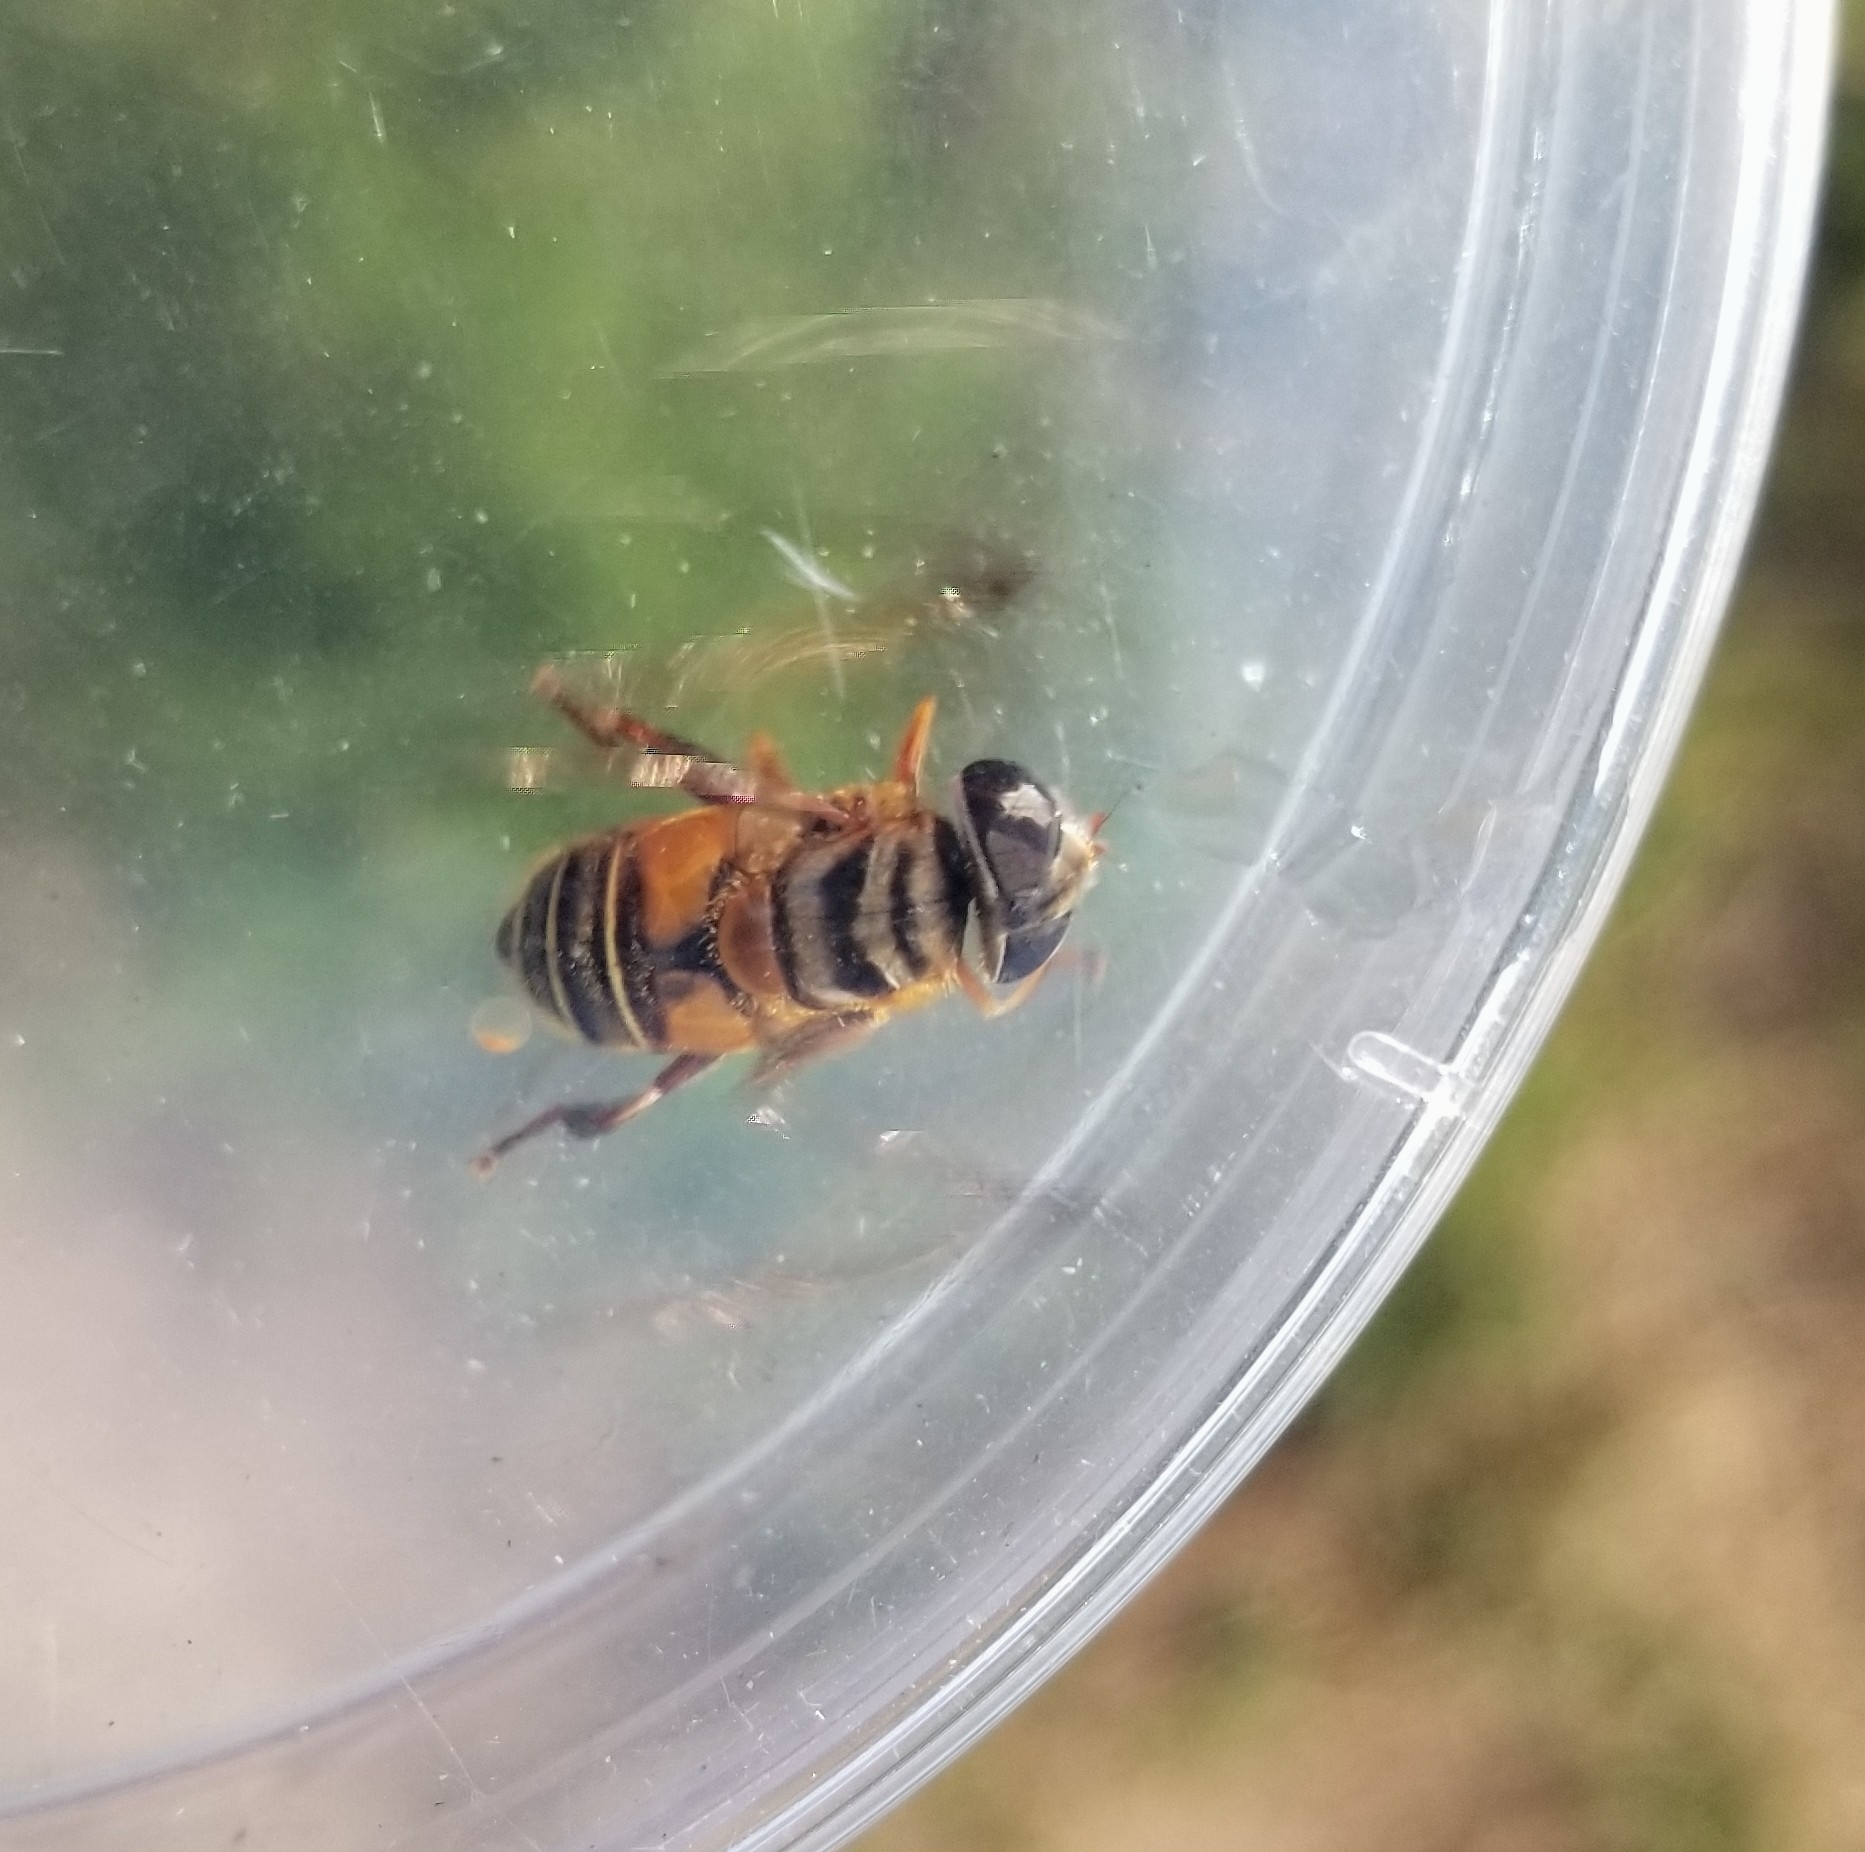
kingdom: Animalia
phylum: Arthropoda
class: Insecta
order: Diptera
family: Syrphidae
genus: Palpada
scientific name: Palpada vinetorum
